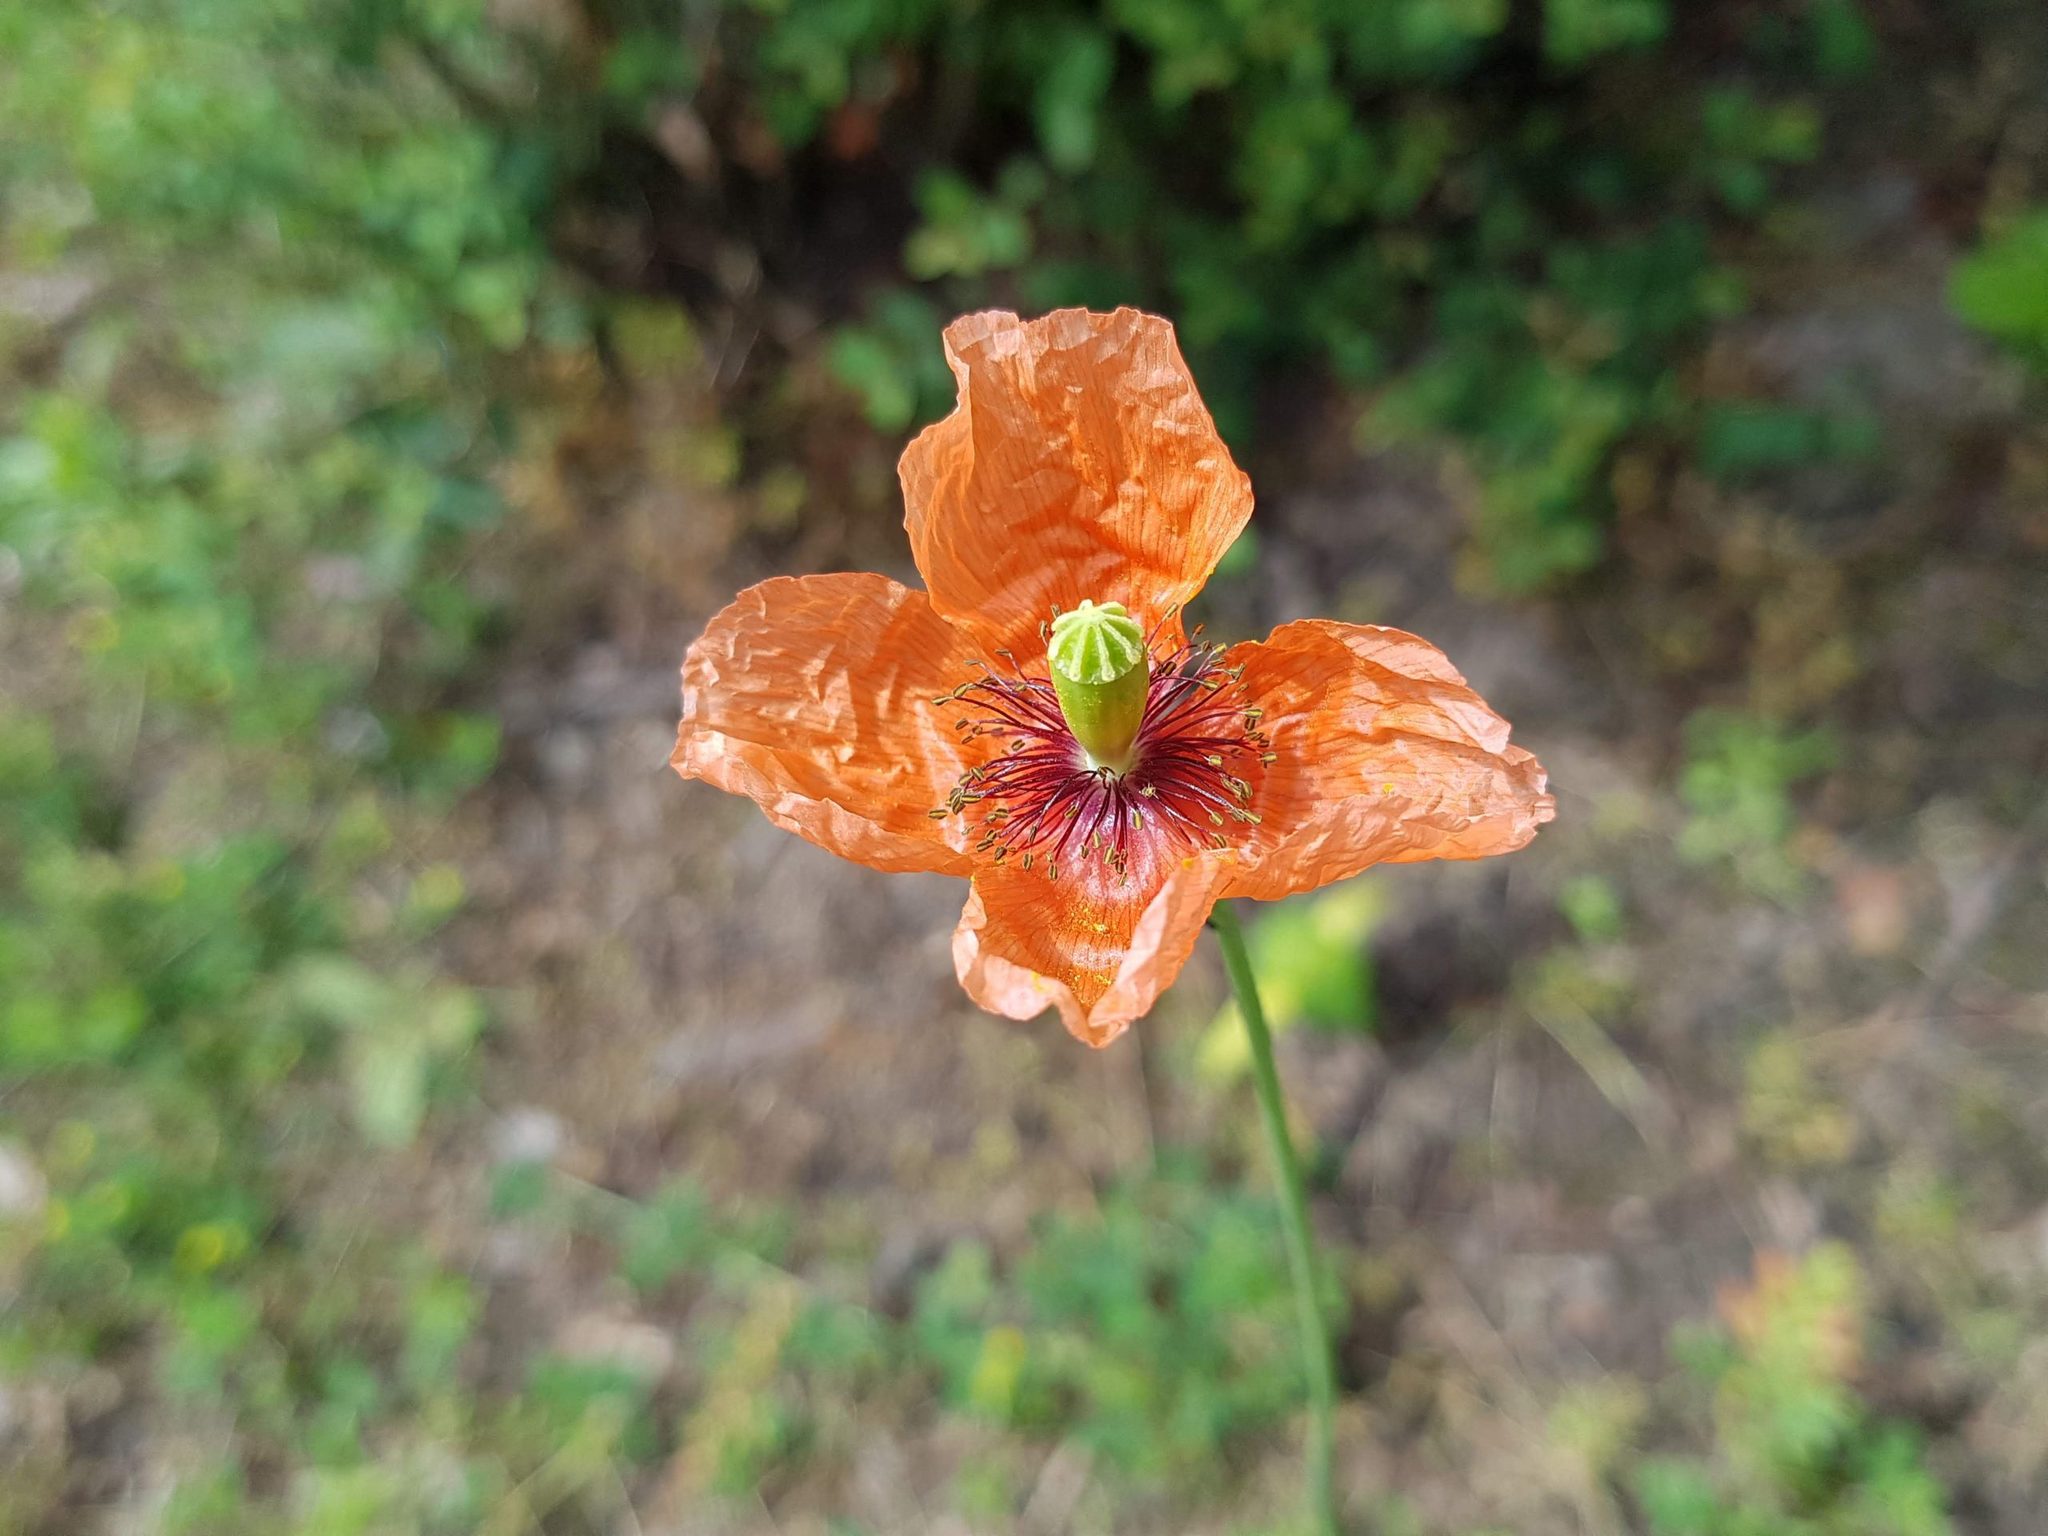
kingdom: Plantae
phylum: Tracheophyta
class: Magnoliopsida
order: Ranunculales
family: Papaveraceae
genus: Papaver
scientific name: Papaver dubium
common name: Long-headed poppy
